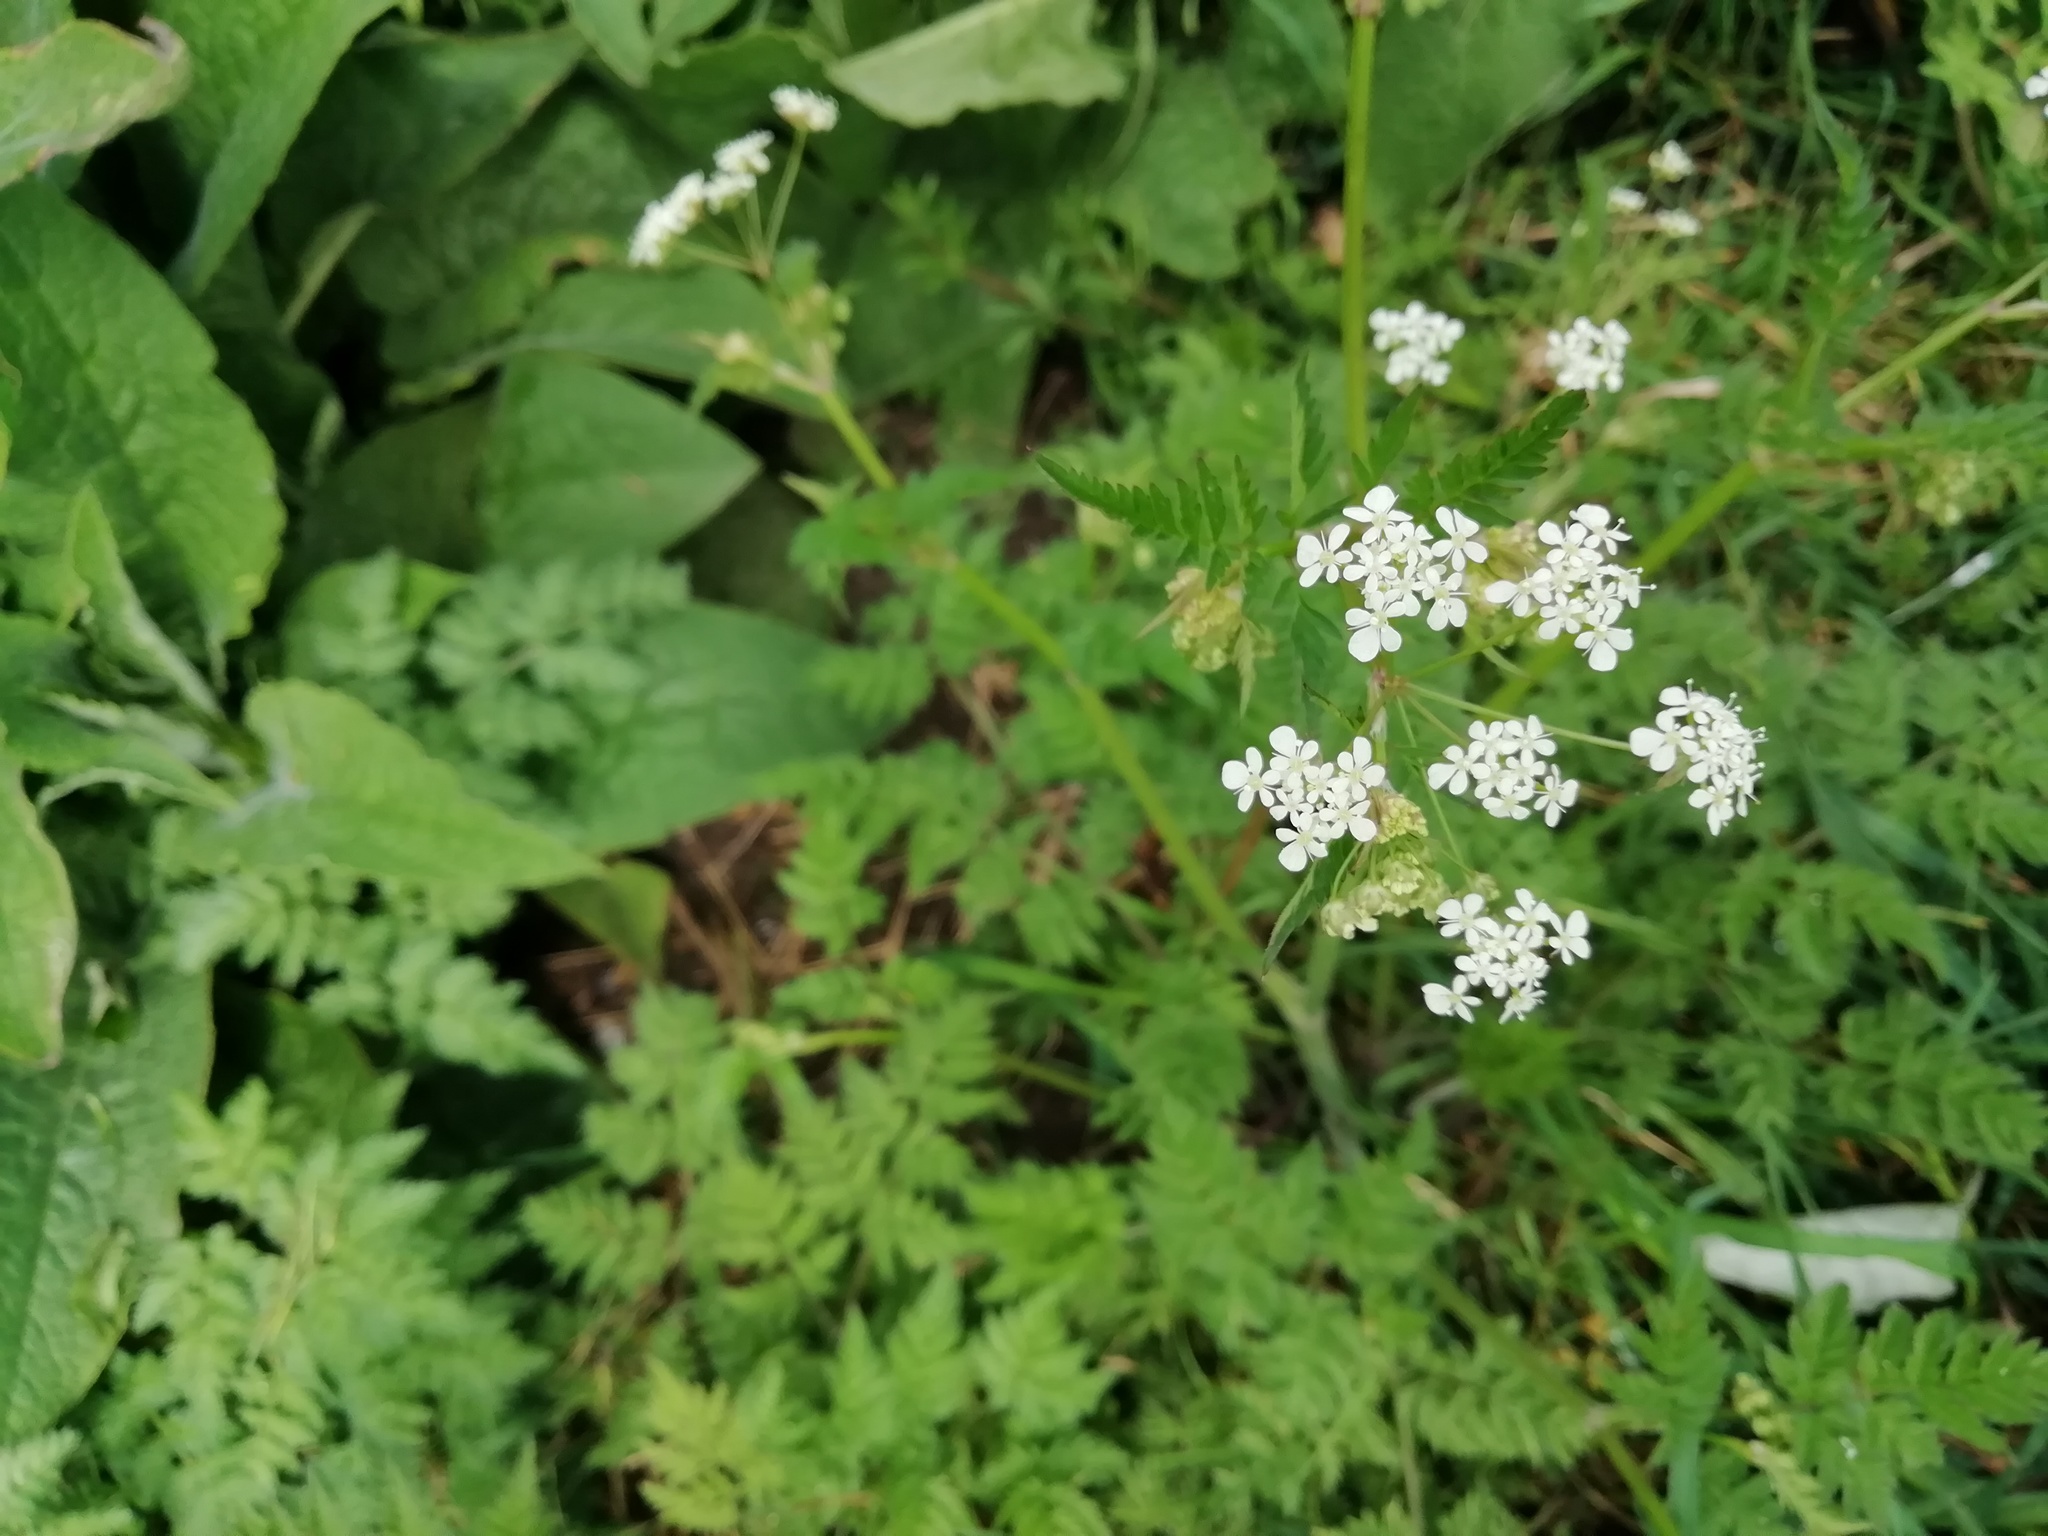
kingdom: Plantae
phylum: Tracheophyta
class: Magnoliopsida
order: Apiales
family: Apiaceae
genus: Anthriscus
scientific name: Anthriscus sylvestris
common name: Cow parsley
